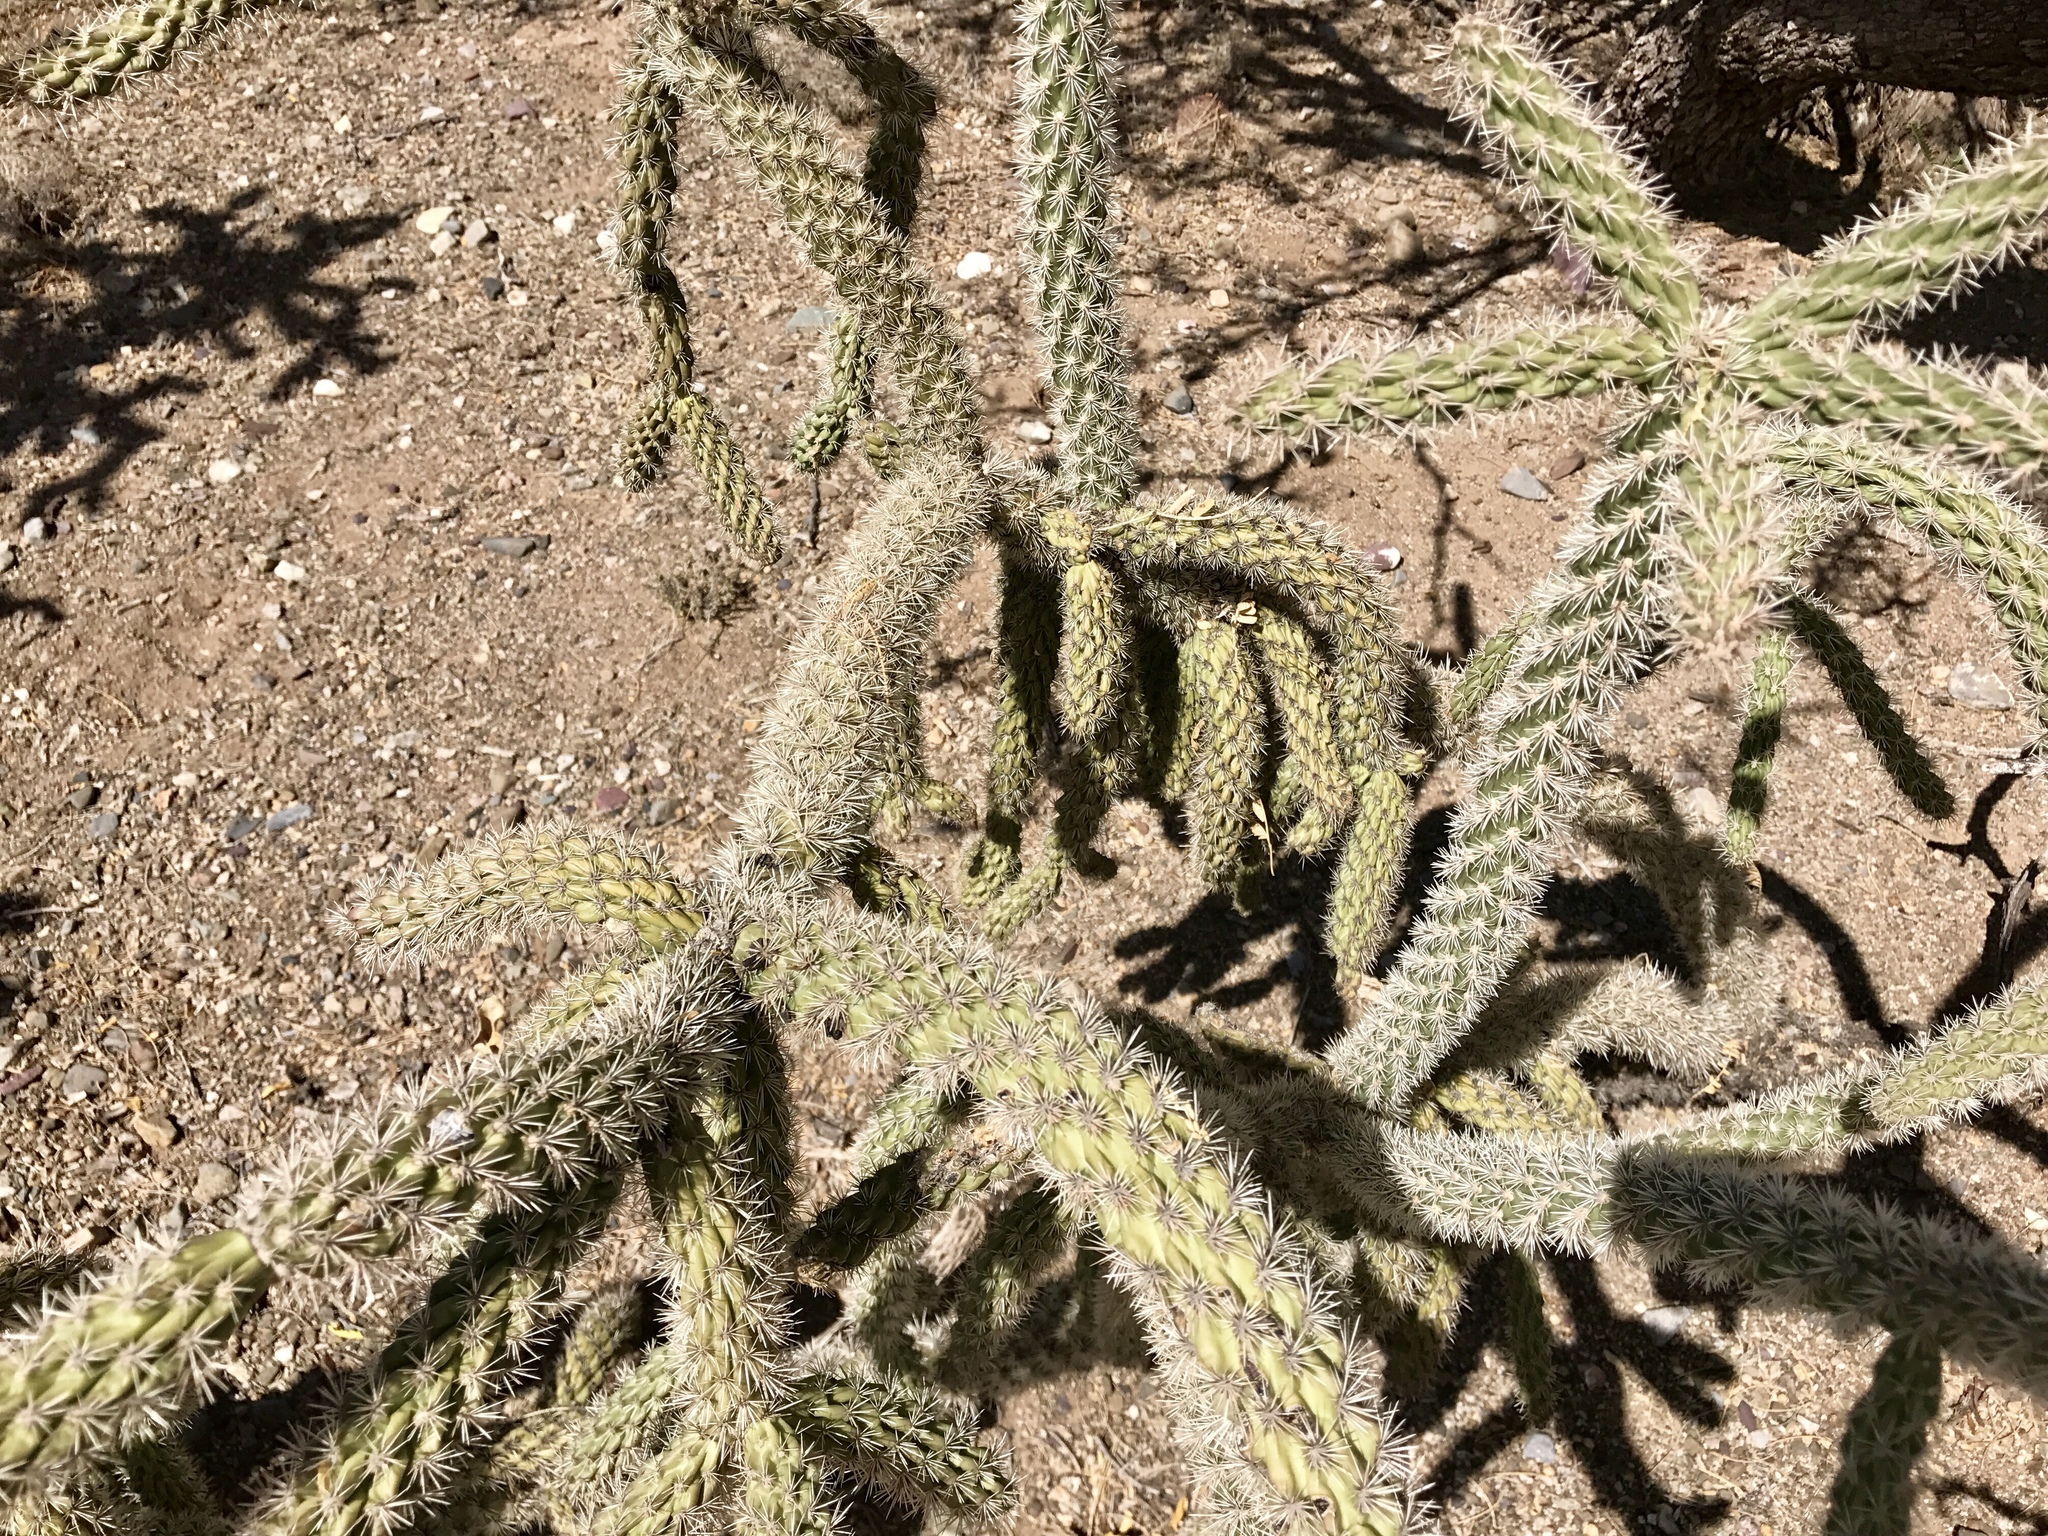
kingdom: Plantae
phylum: Tracheophyta
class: Magnoliopsida
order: Caryophyllales
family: Cactaceae
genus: Cylindropuntia
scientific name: Cylindropuntia imbricata
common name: Candelabrum cactus
